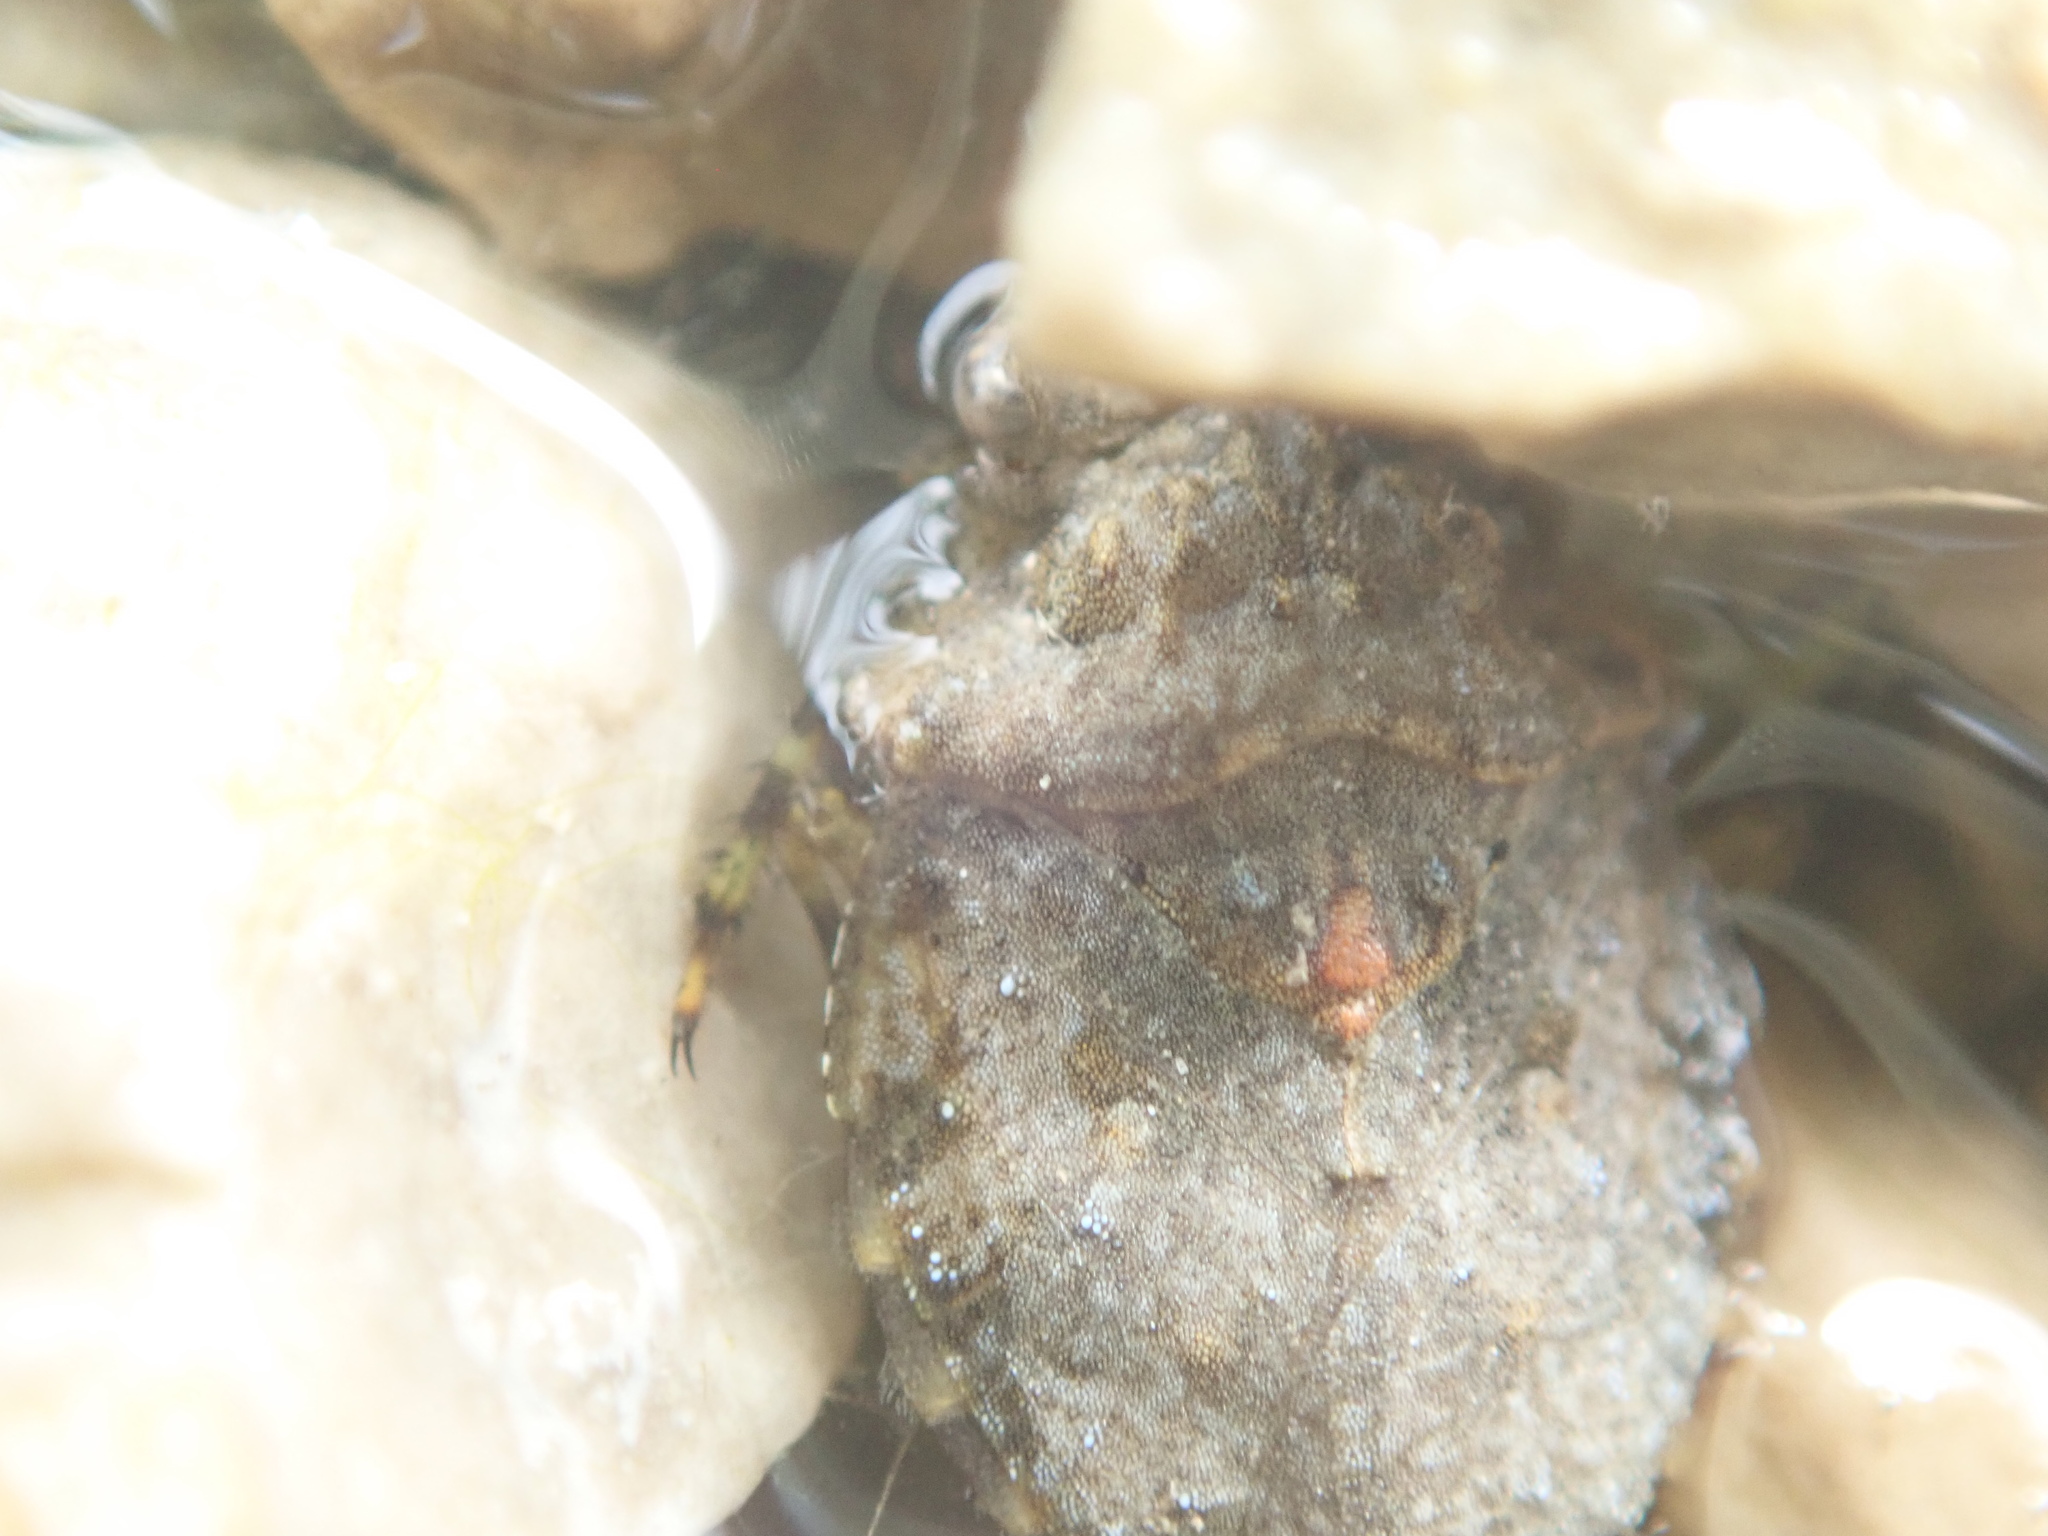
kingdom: Animalia
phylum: Arthropoda
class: Insecta
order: Hemiptera
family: Gelastocoridae
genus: Gelastocoris
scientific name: Gelastocoris oculatus
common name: Toad bug
